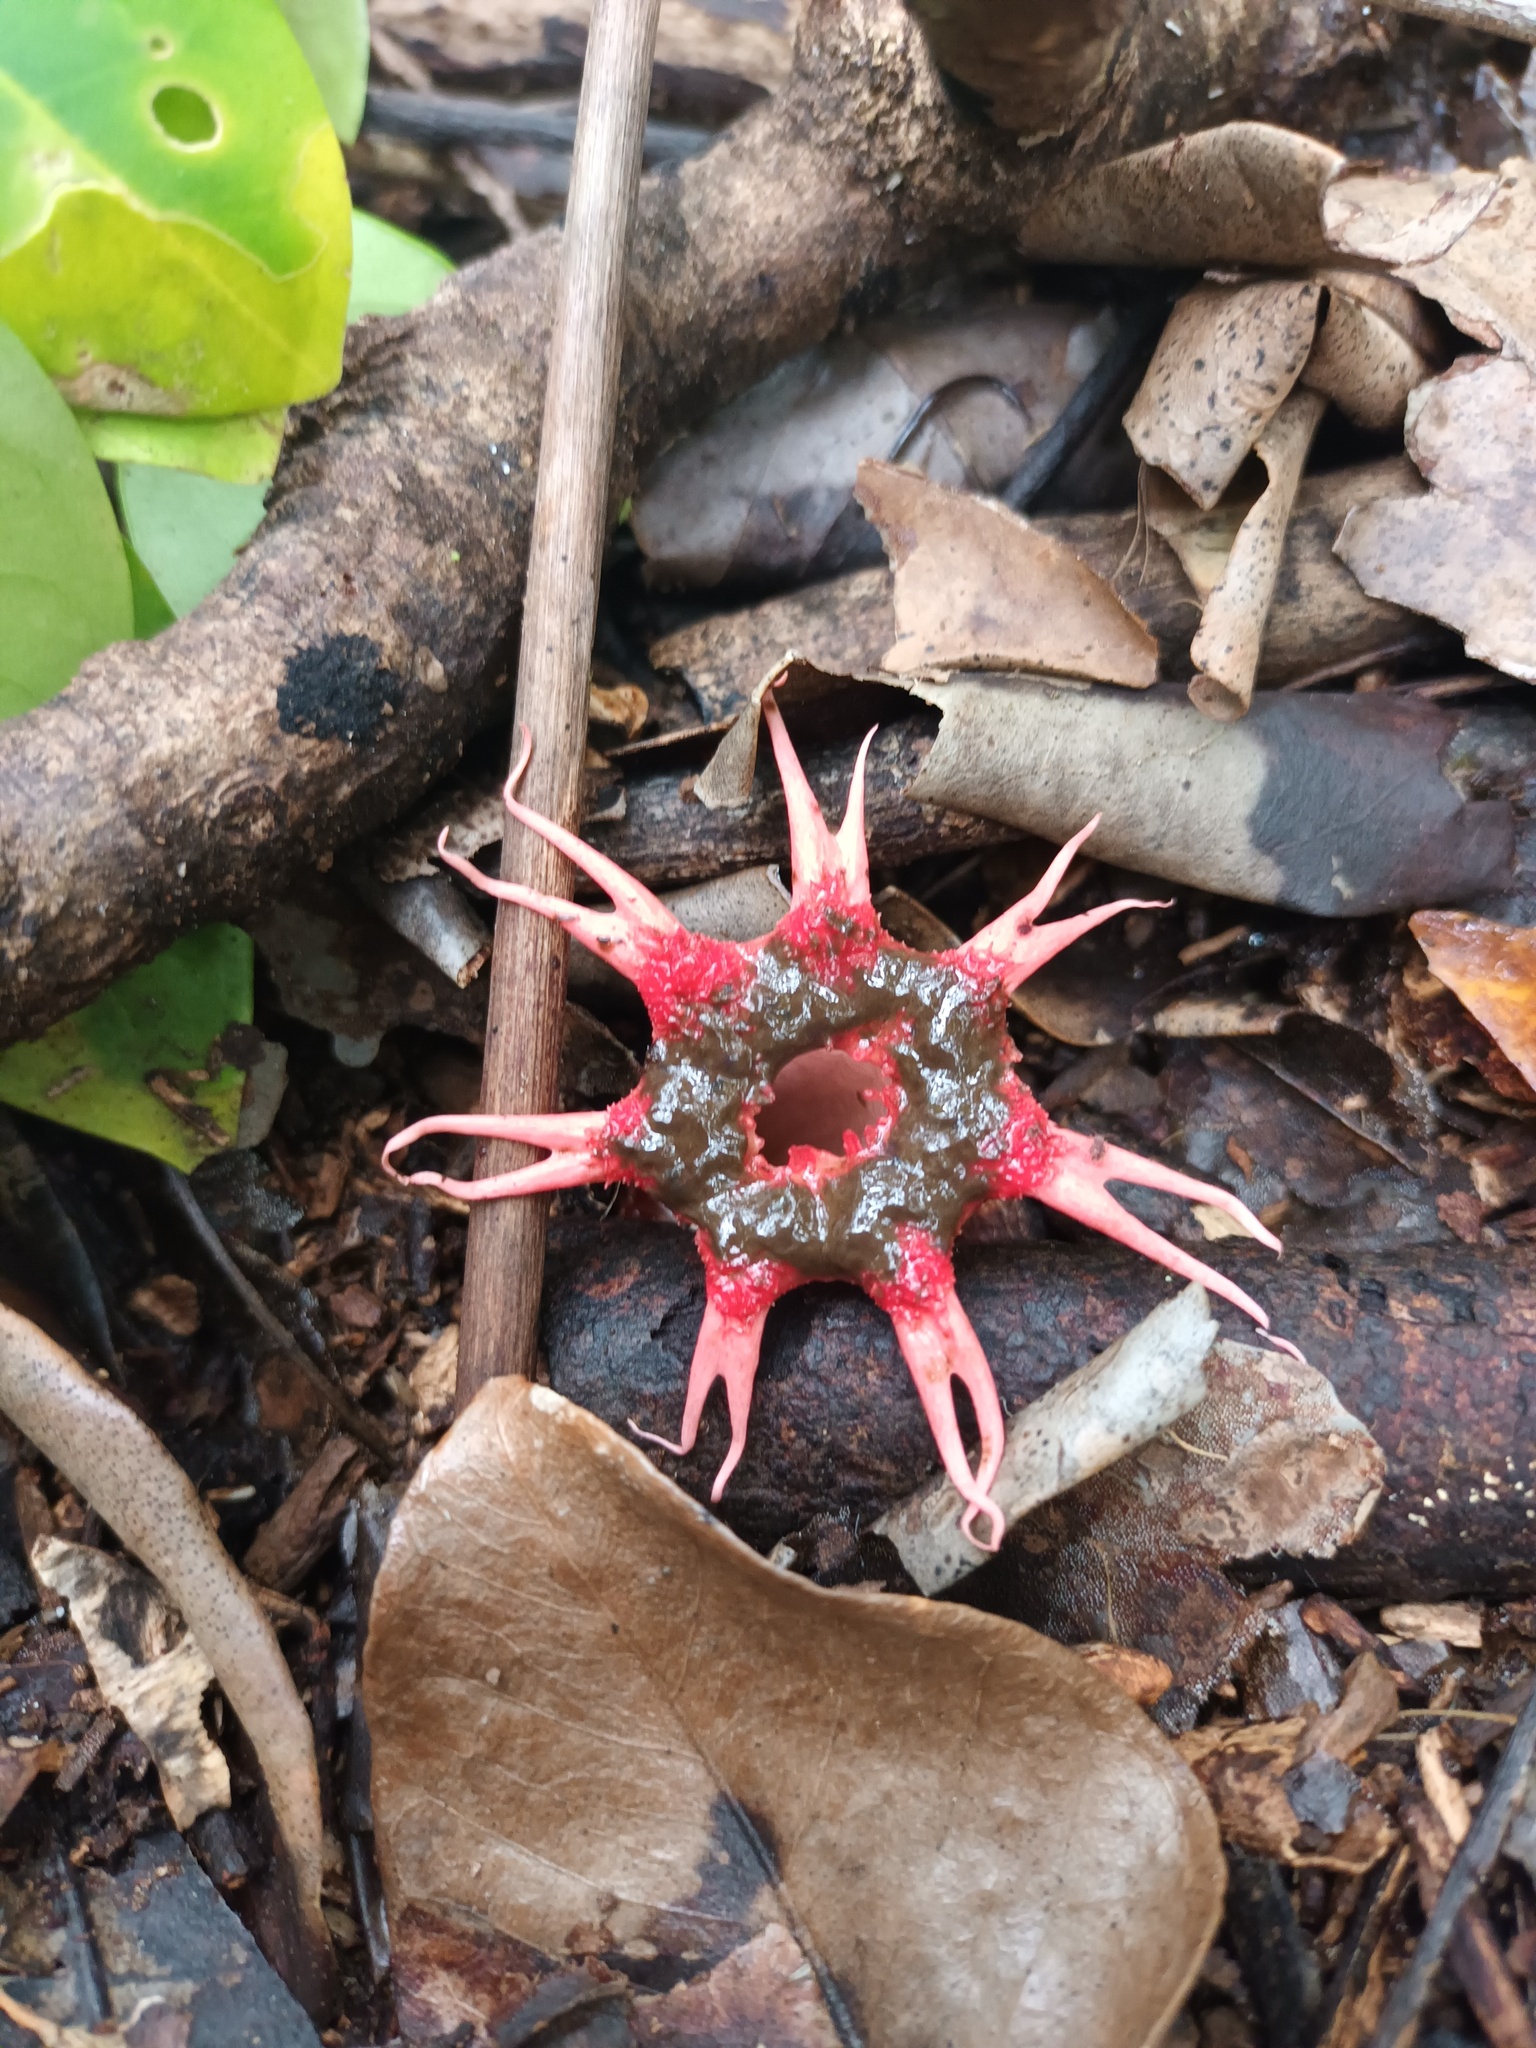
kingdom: Fungi
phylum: Basidiomycota
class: Agaricomycetes
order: Phallales
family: Phallaceae
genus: Aseroe
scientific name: Aseroe rubra
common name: Starfish fungus
